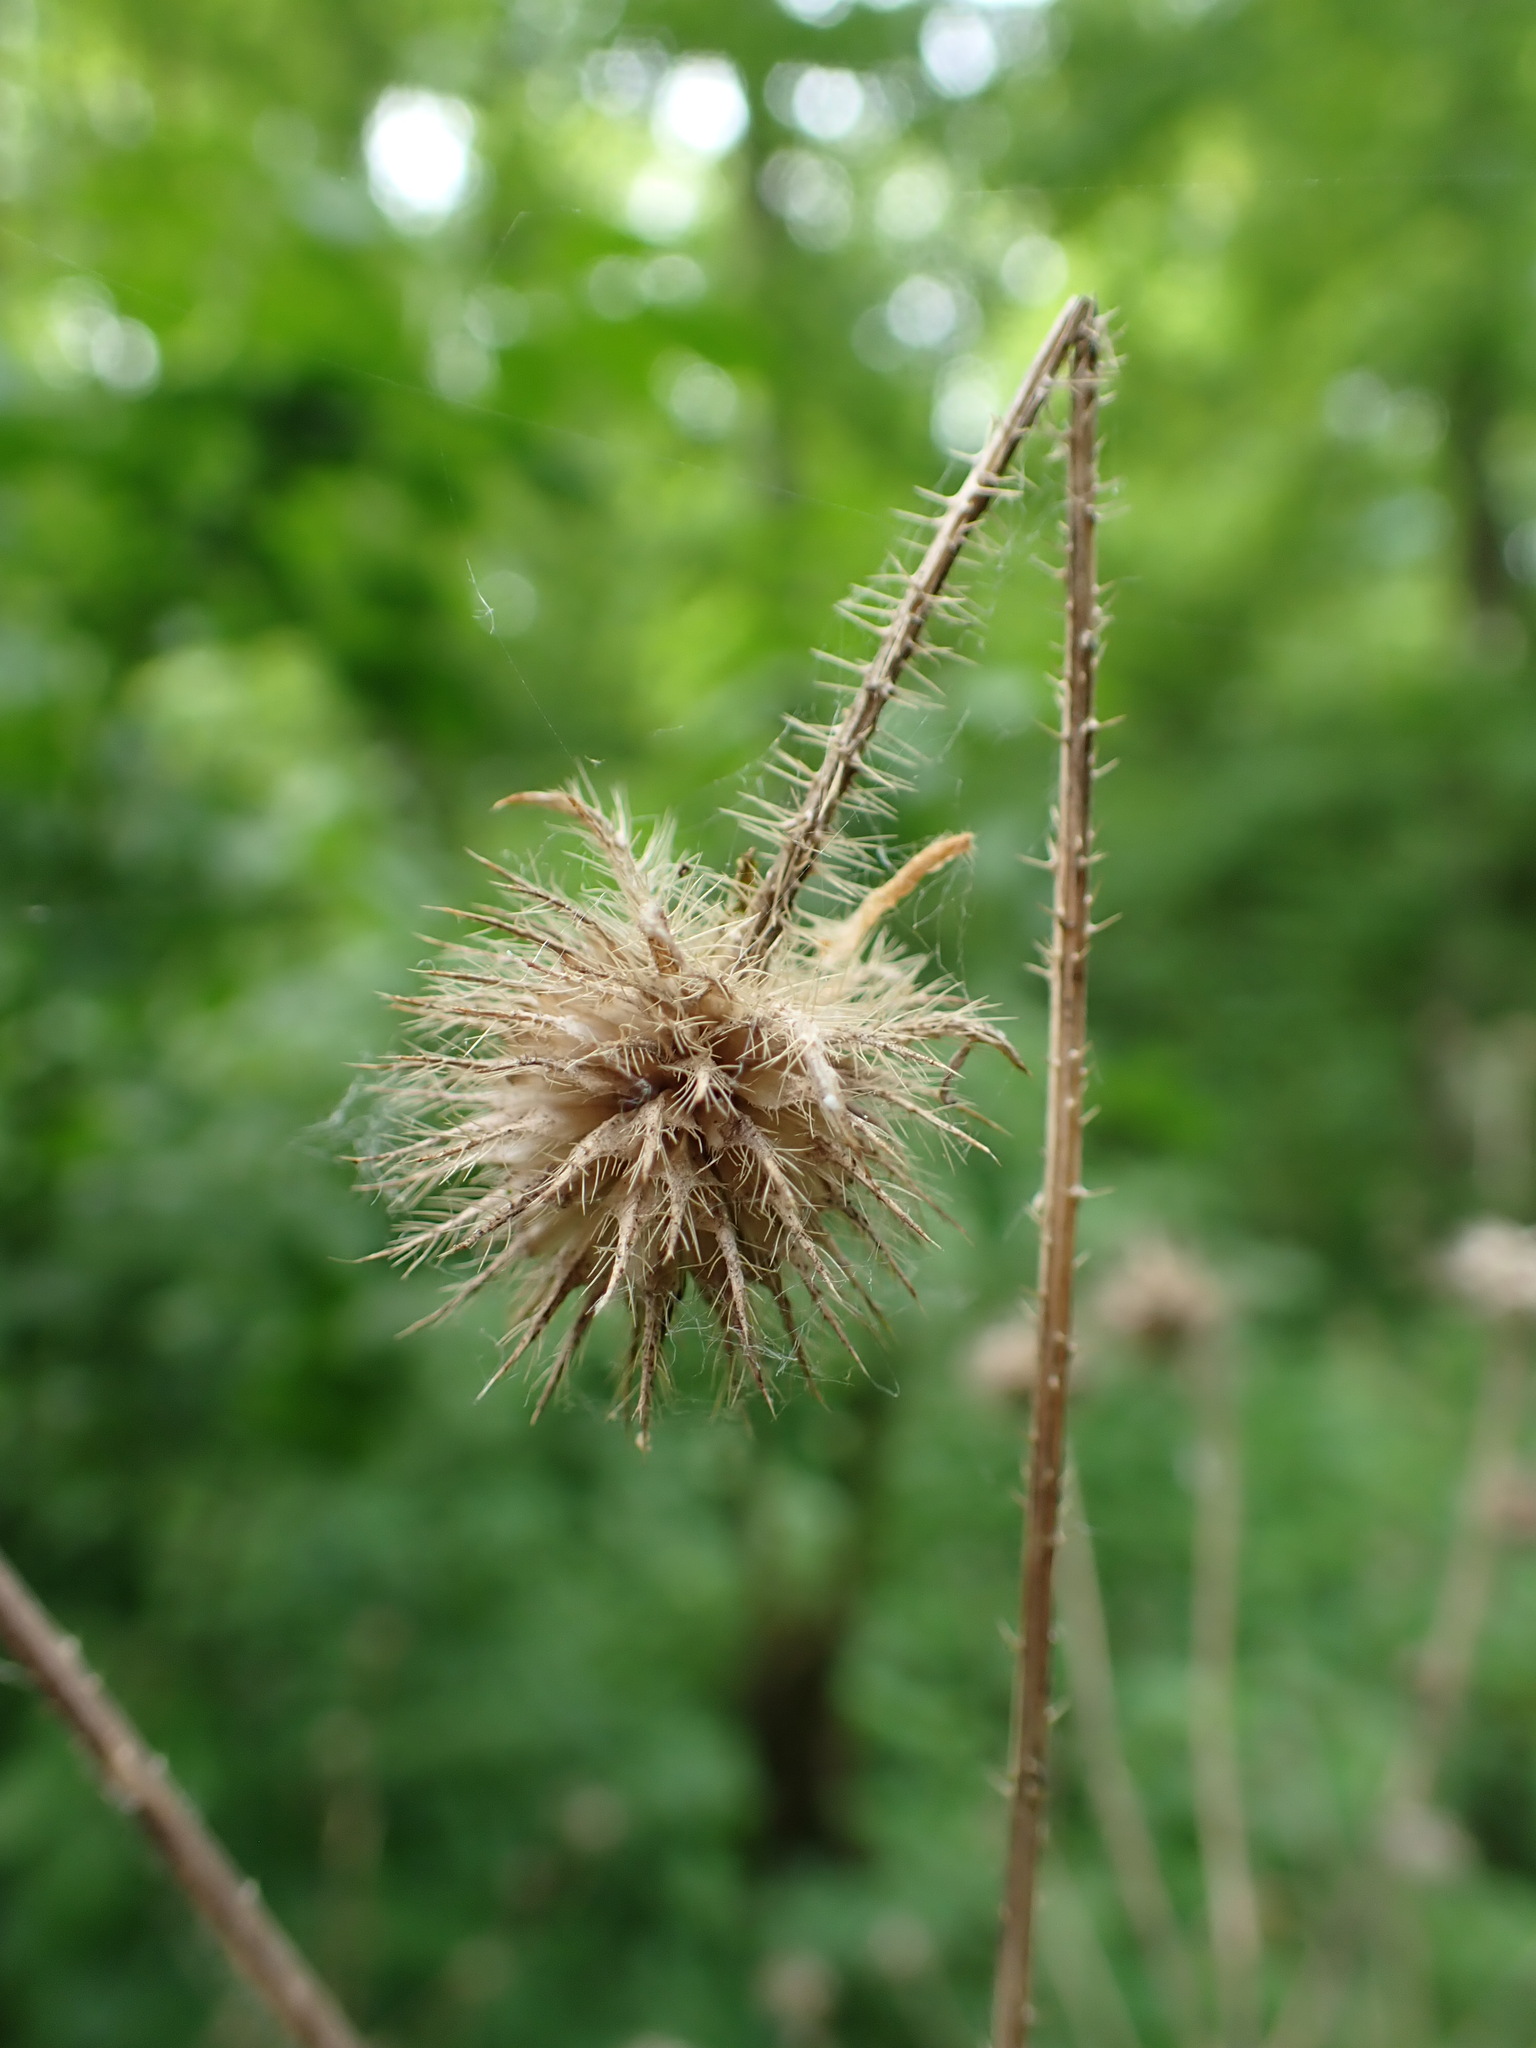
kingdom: Plantae
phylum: Tracheophyta
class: Magnoliopsida
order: Dipsacales
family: Caprifoliaceae
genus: Dipsacus
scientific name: Dipsacus pilosus
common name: Small teasel
